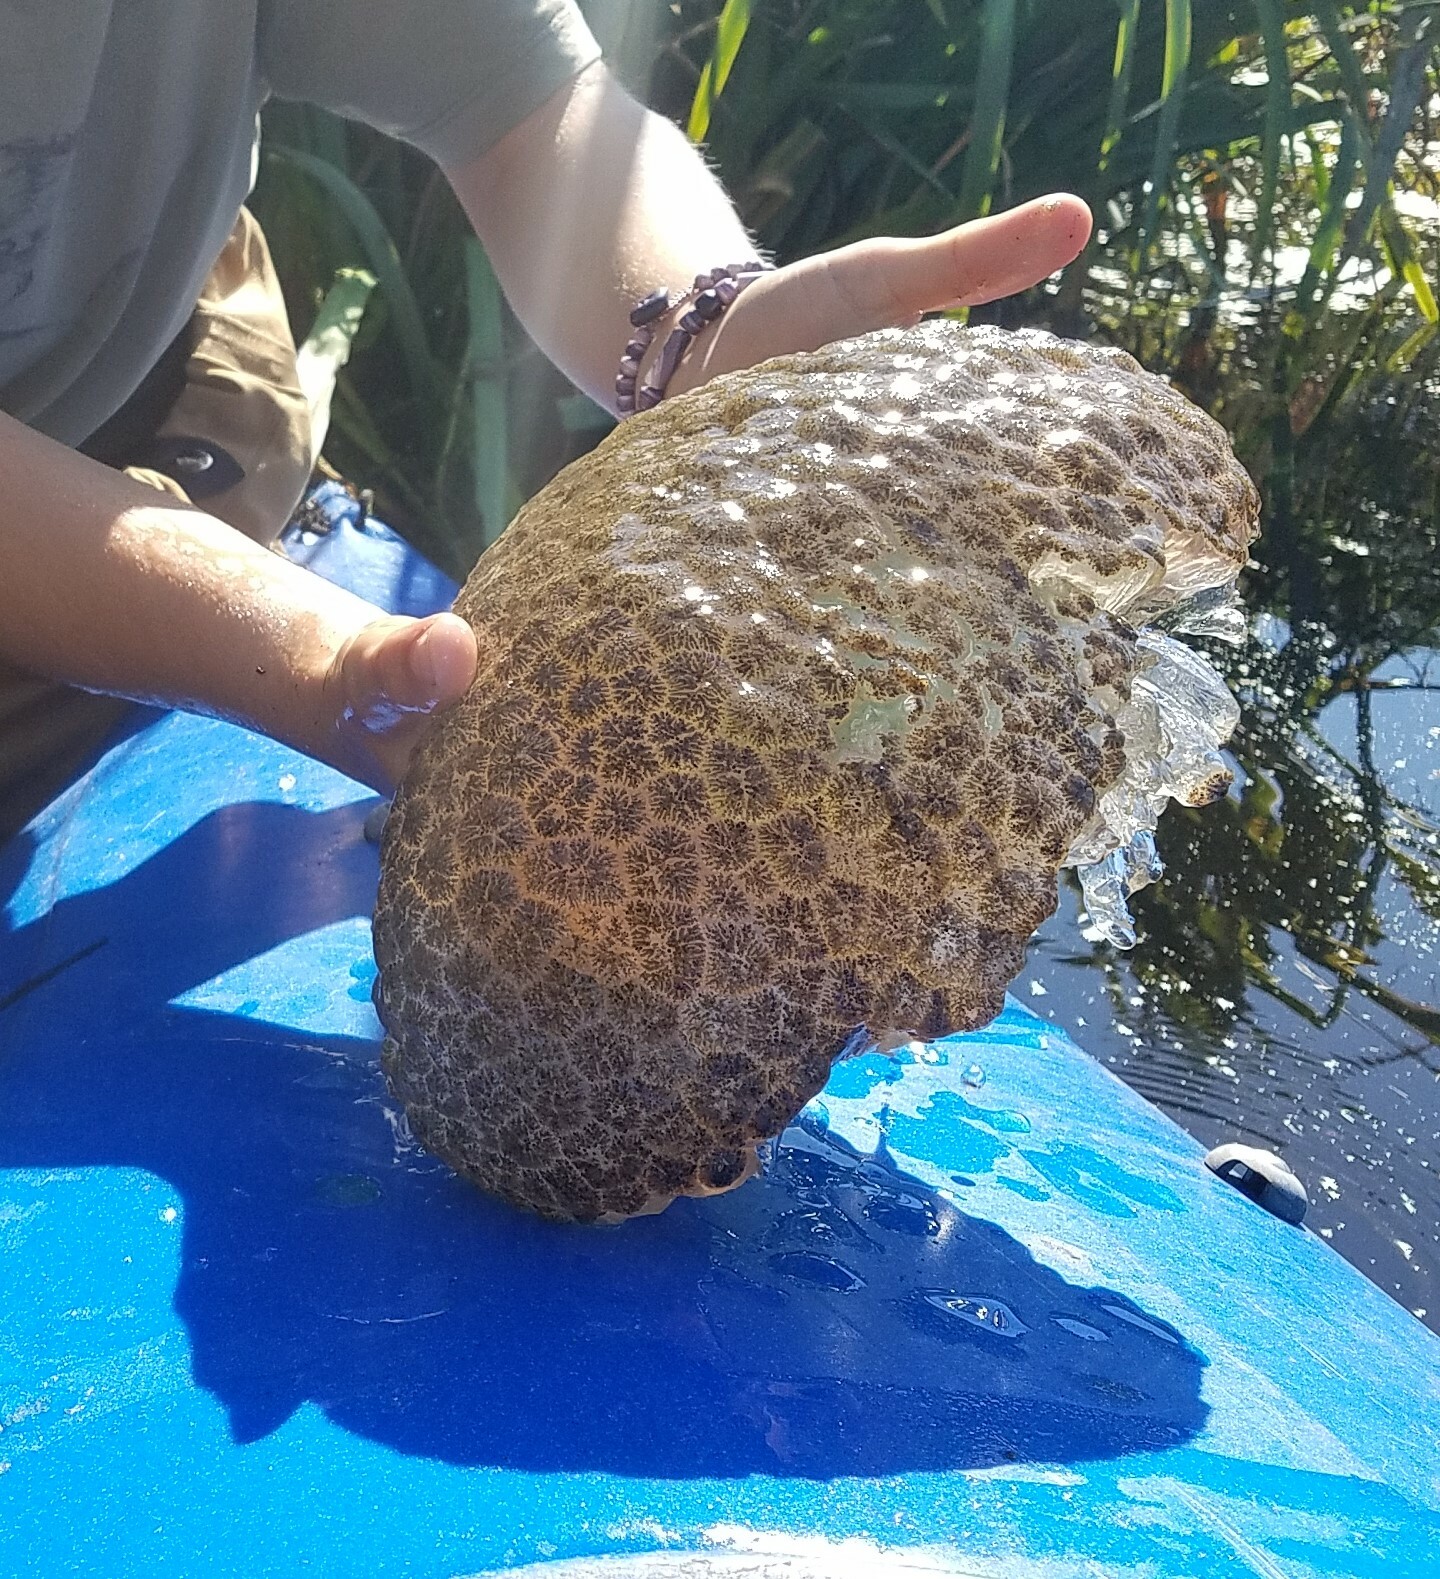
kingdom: Animalia
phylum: Bryozoa
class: Phylactolaemata
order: Plumatellida
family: Pectinatellidae
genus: Pectinatella
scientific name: Pectinatella magnifica
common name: Magnificent bryozoan
